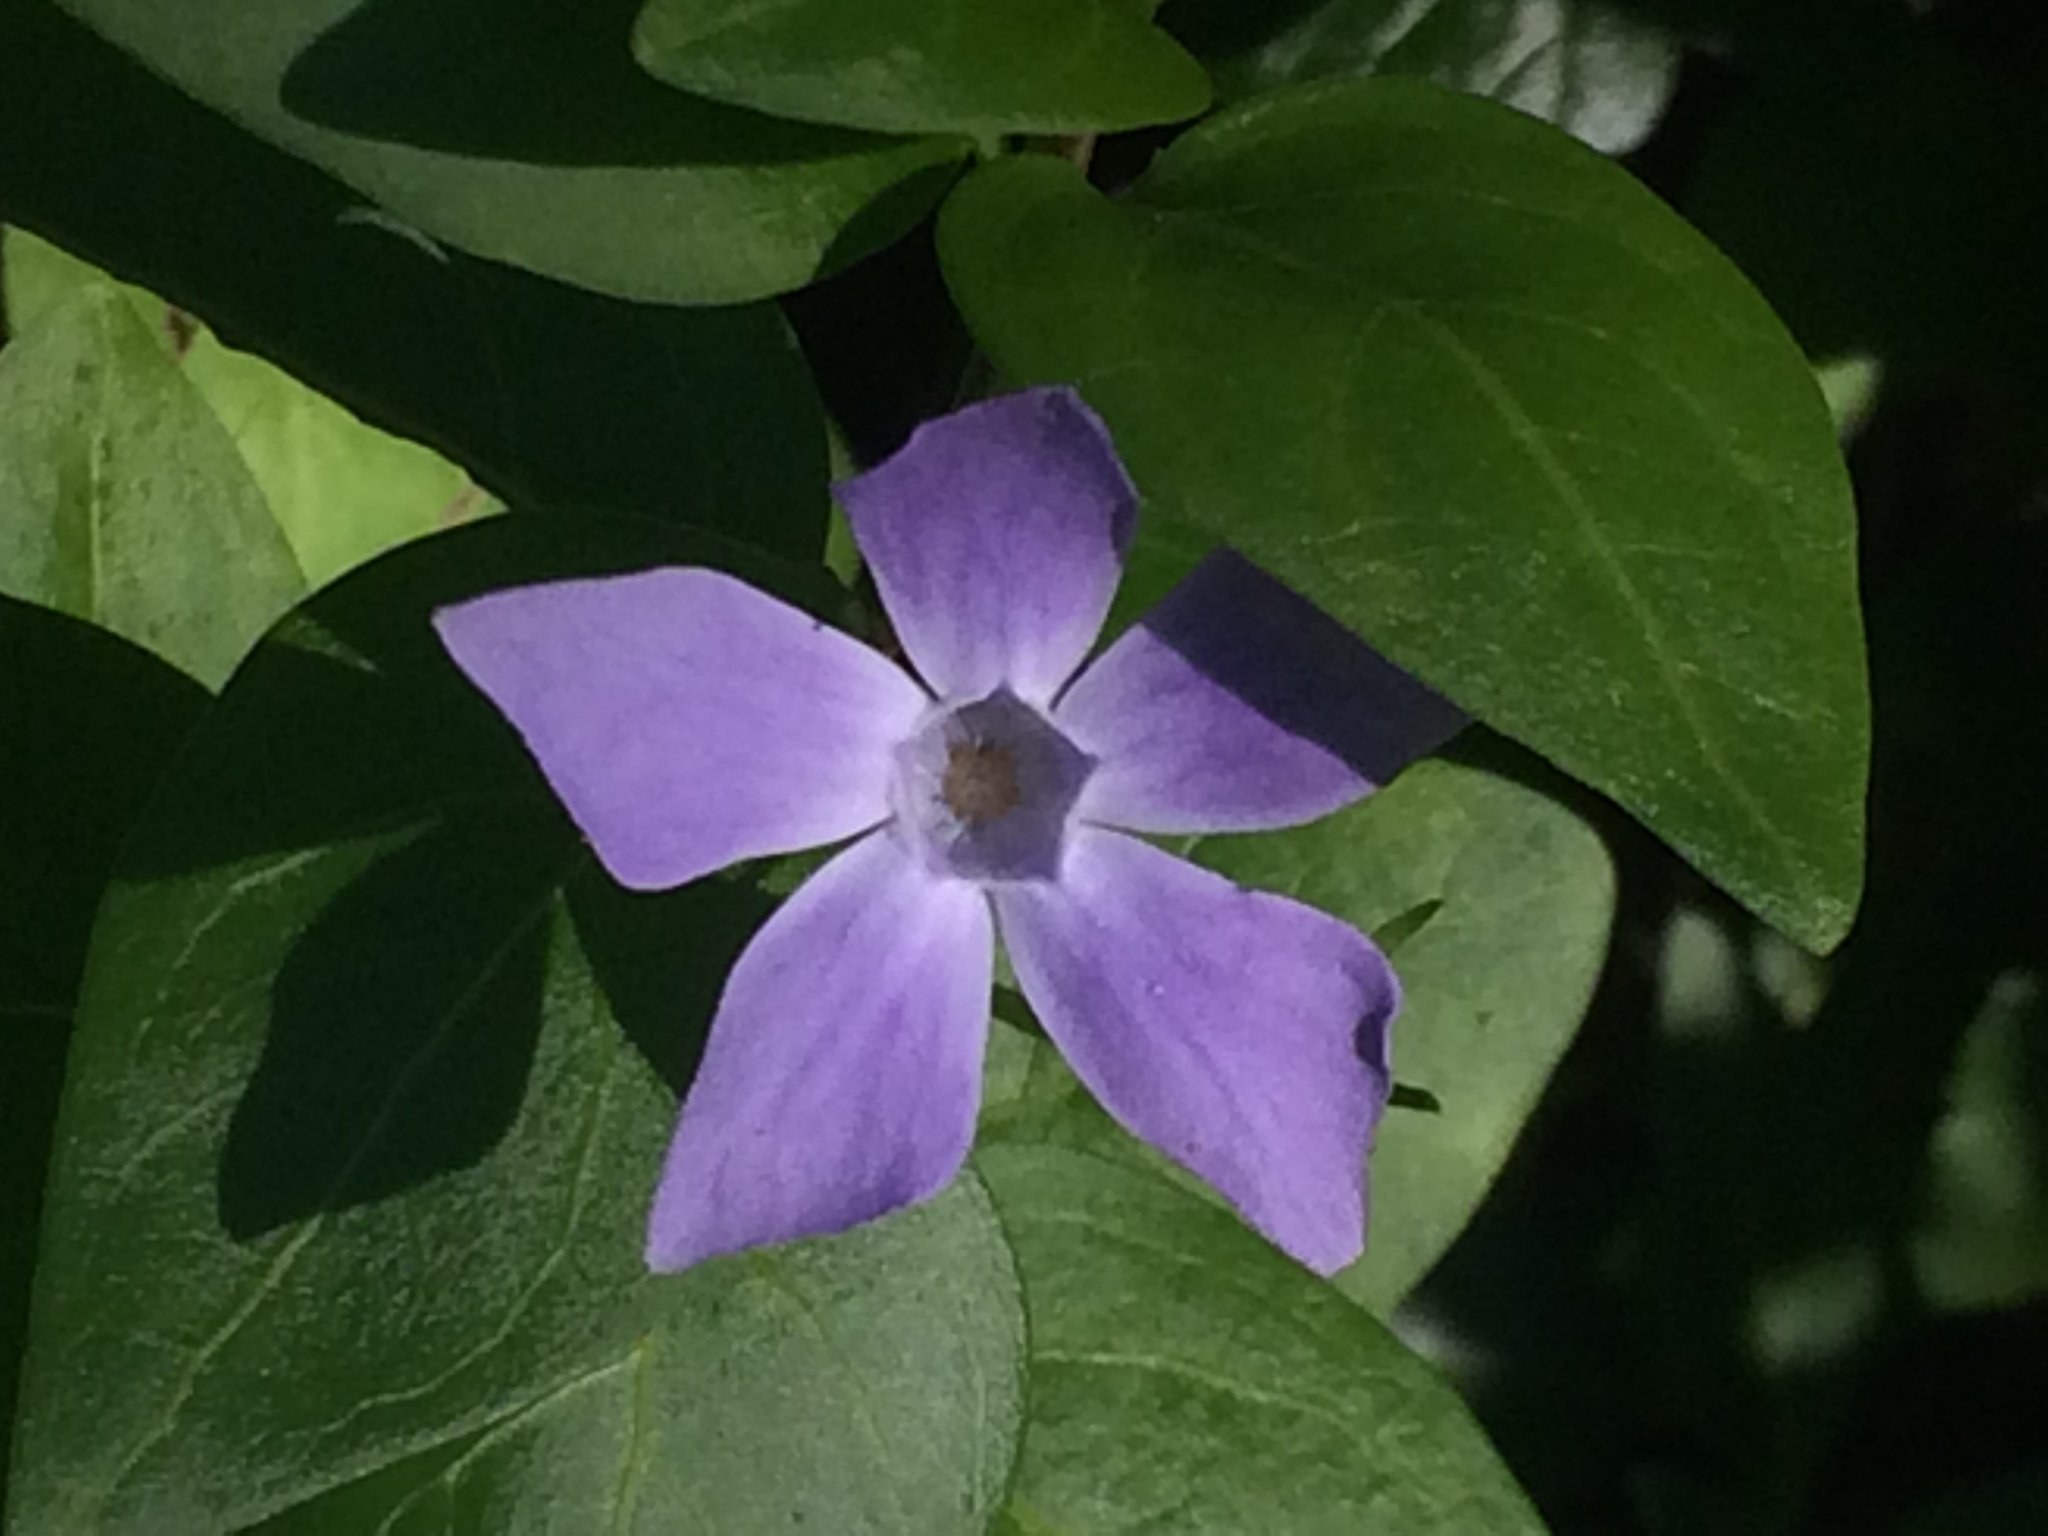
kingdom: Plantae
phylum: Tracheophyta
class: Magnoliopsida
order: Gentianales
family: Apocynaceae
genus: Vinca
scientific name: Vinca difformis
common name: Intermediate periwinkle
